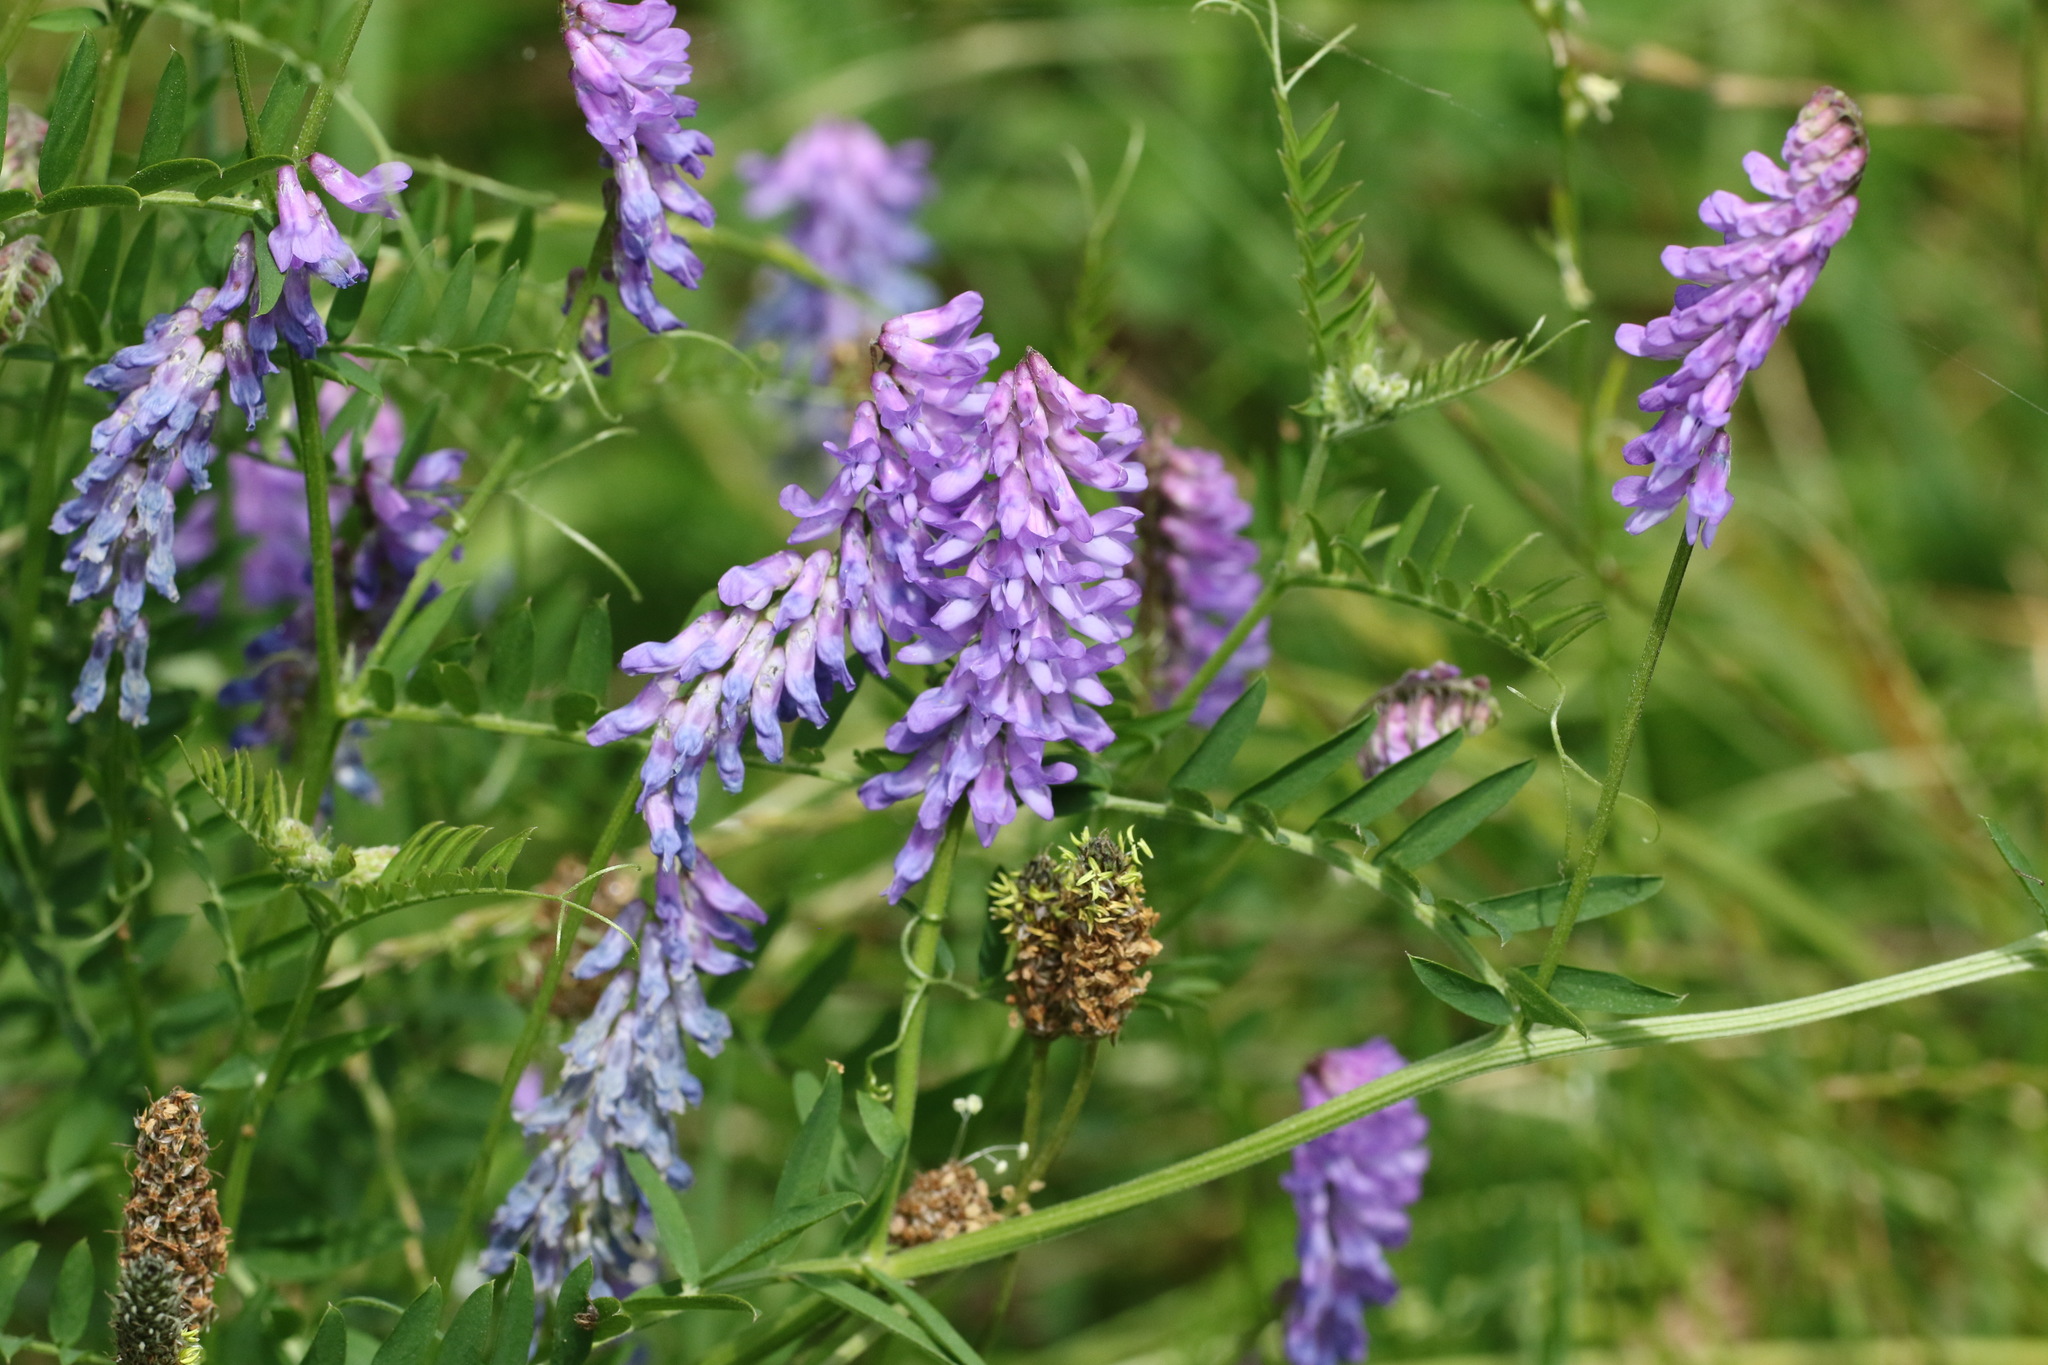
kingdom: Plantae
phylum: Tracheophyta
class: Magnoliopsida
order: Fabales
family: Fabaceae
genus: Vicia
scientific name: Vicia cracca
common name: Bird vetch
